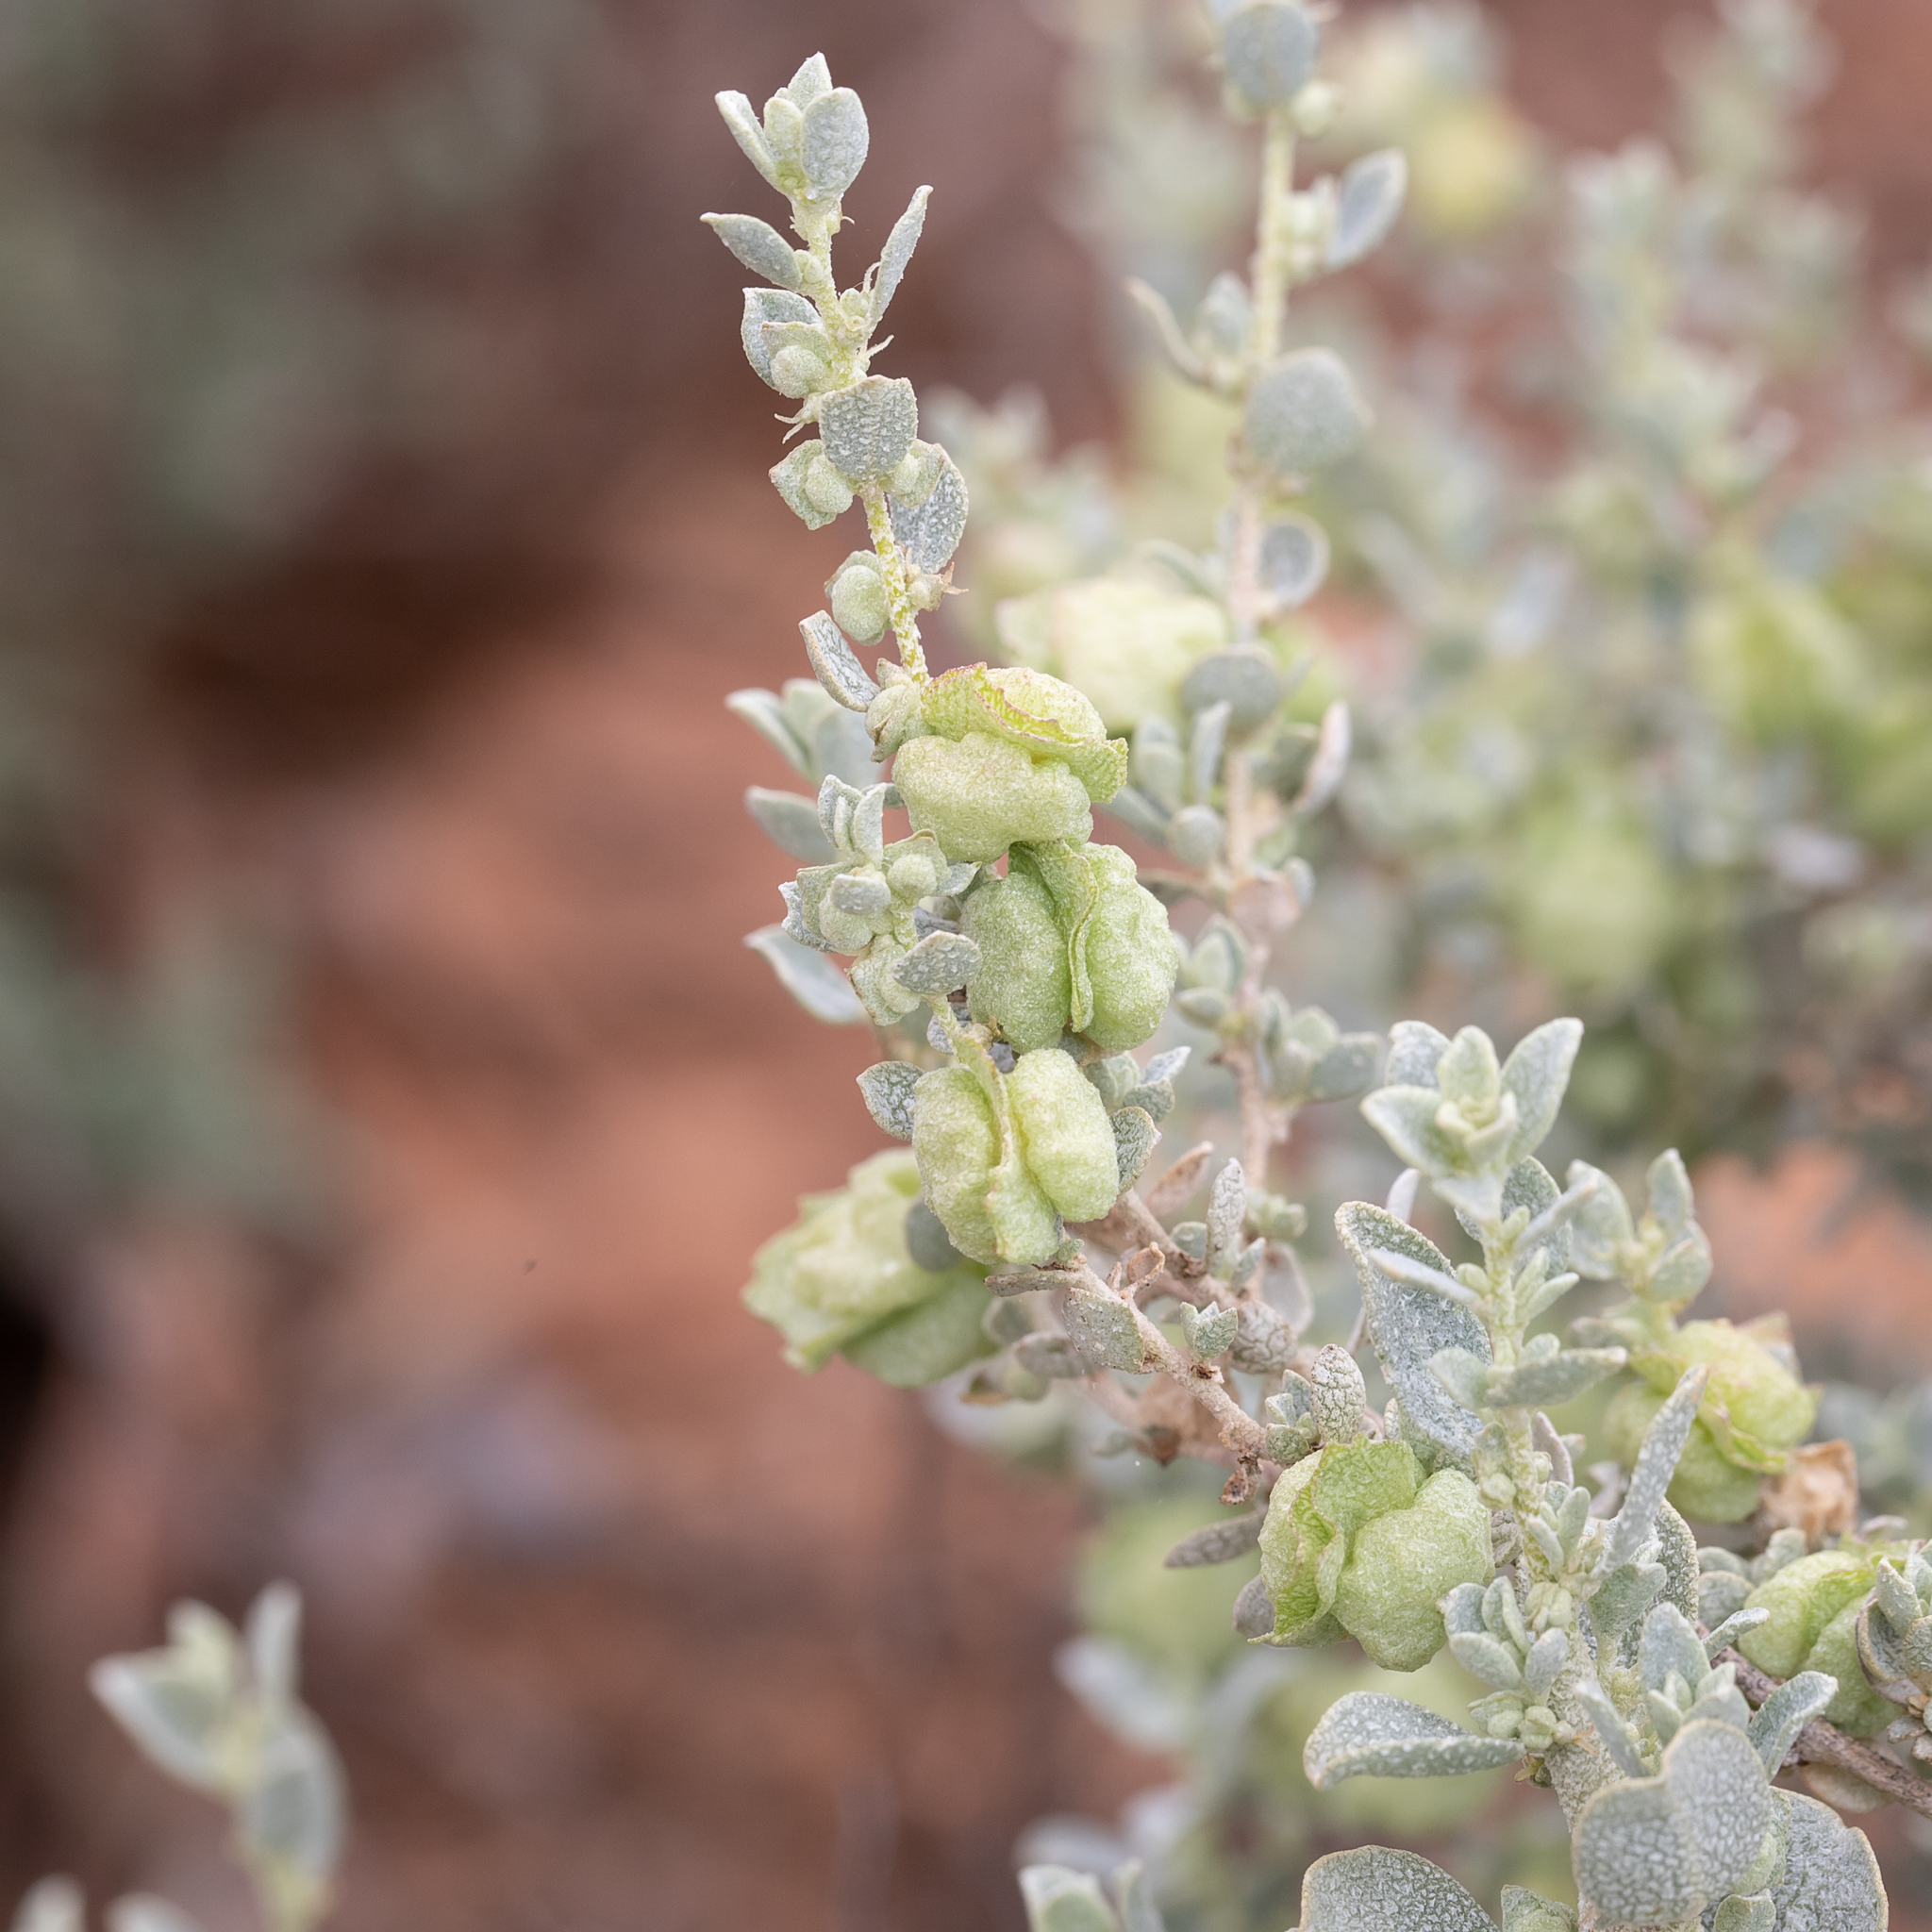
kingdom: Plantae
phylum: Tracheophyta
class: Magnoliopsida
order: Caryophyllales
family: Amaranthaceae
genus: Atriplex
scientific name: Atriplex vesicaria
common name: Aboriginal saltbush
